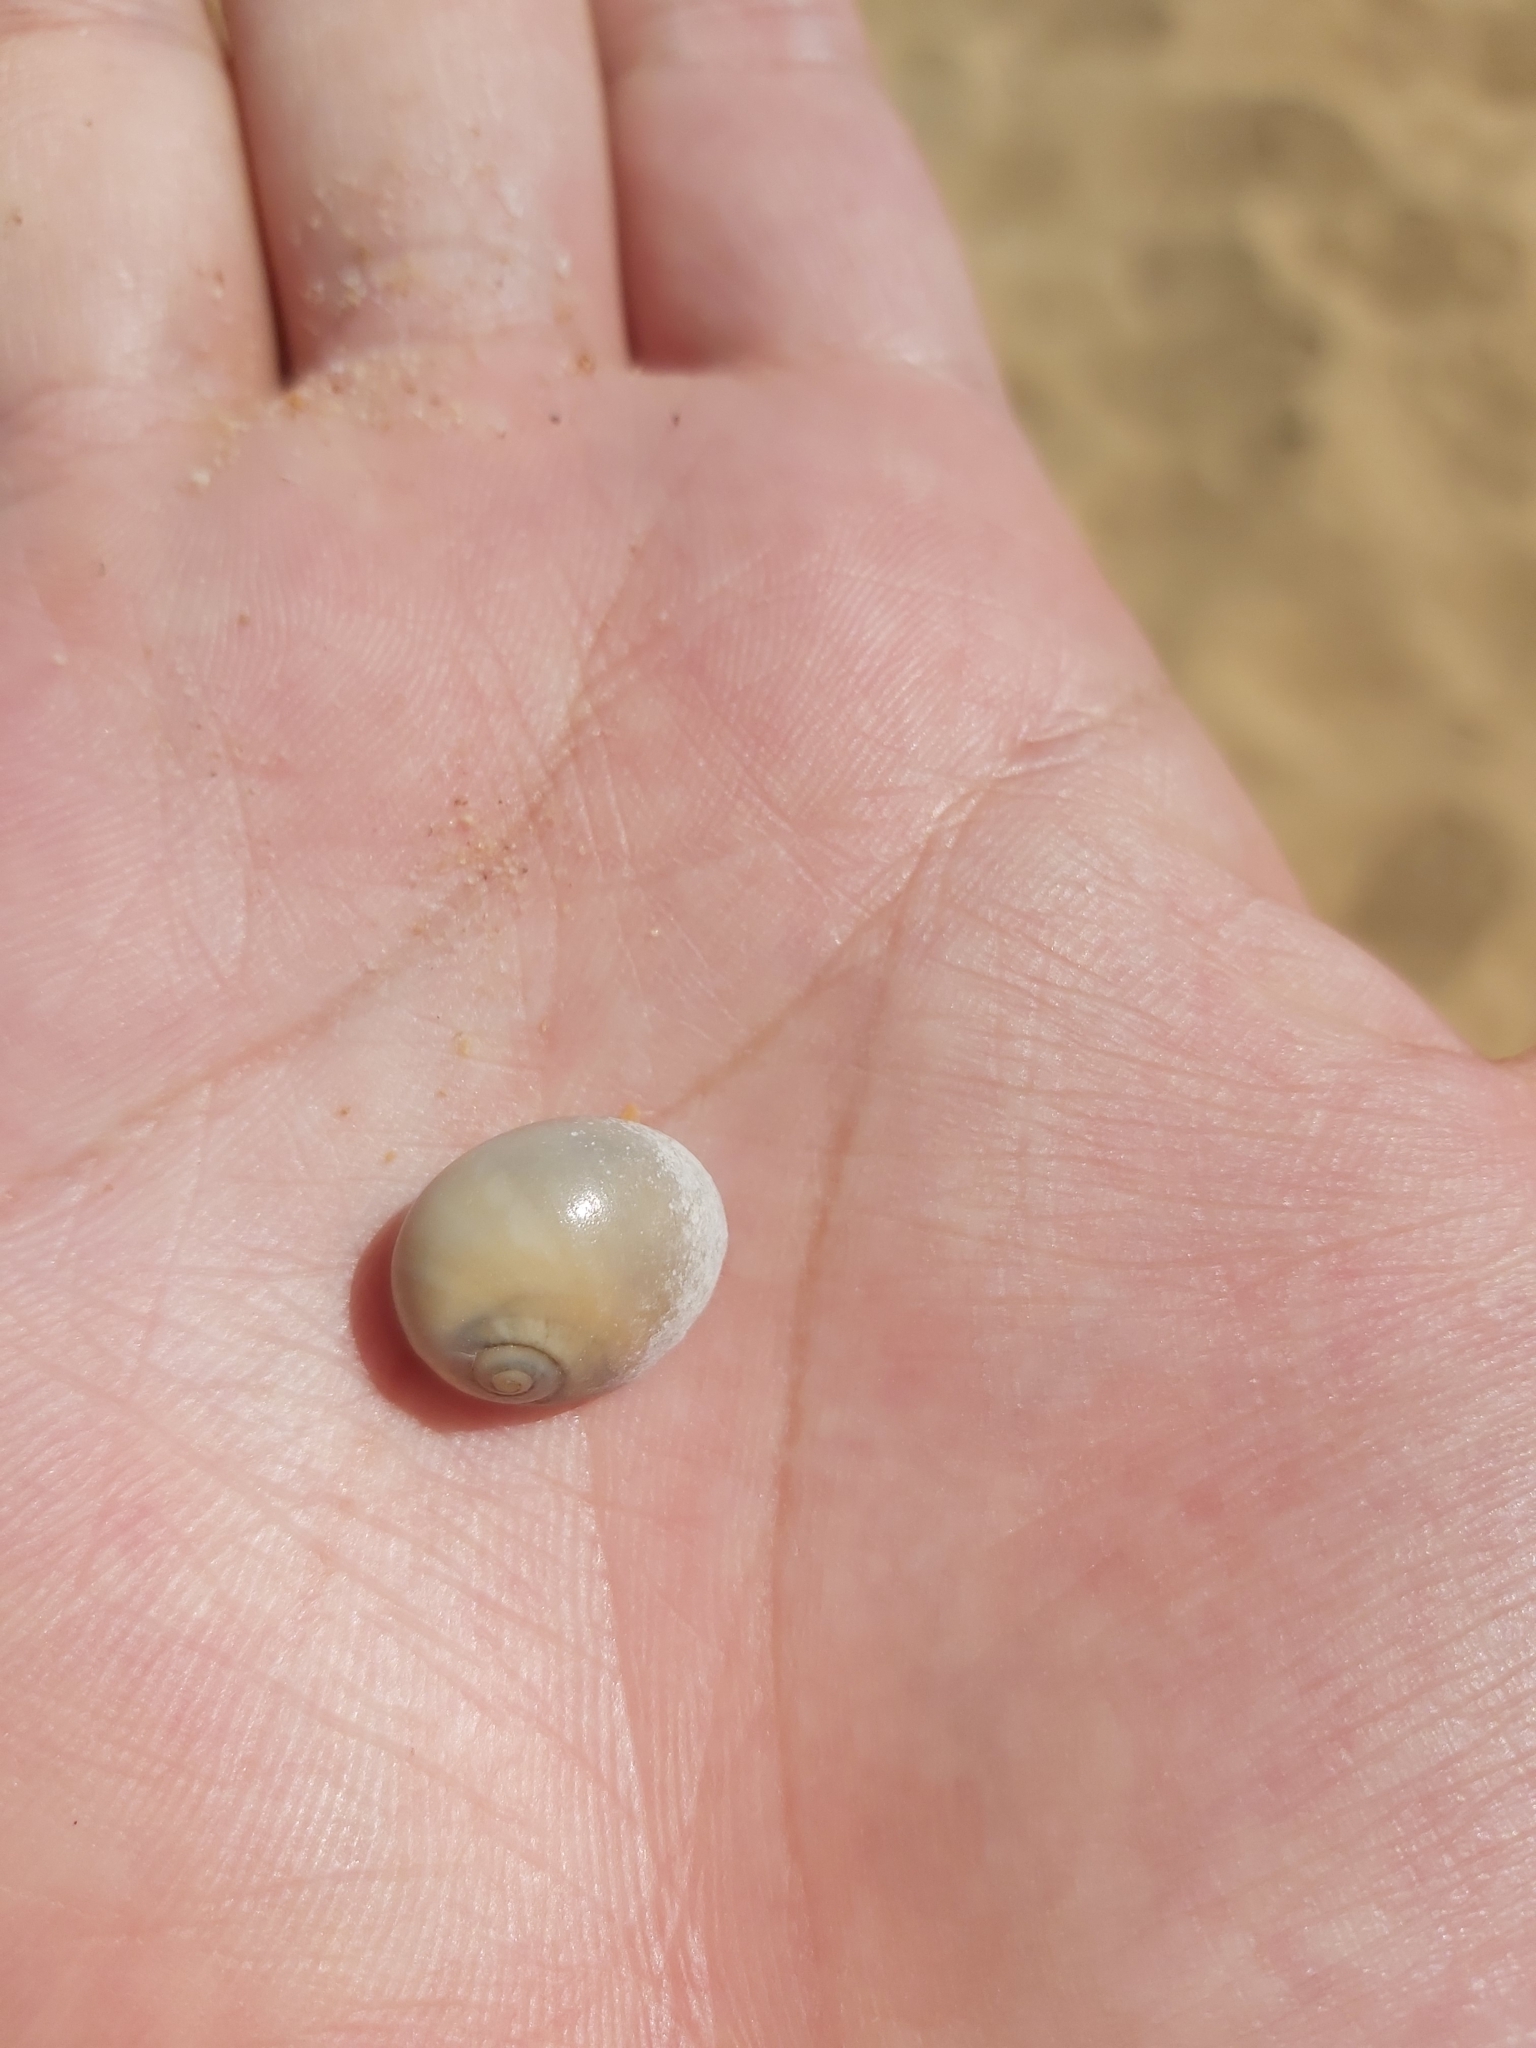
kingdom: Animalia
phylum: Mollusca
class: Gastropoda
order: Littorinimorpha
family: Naticidae
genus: Neverita
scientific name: Neverita didyma
